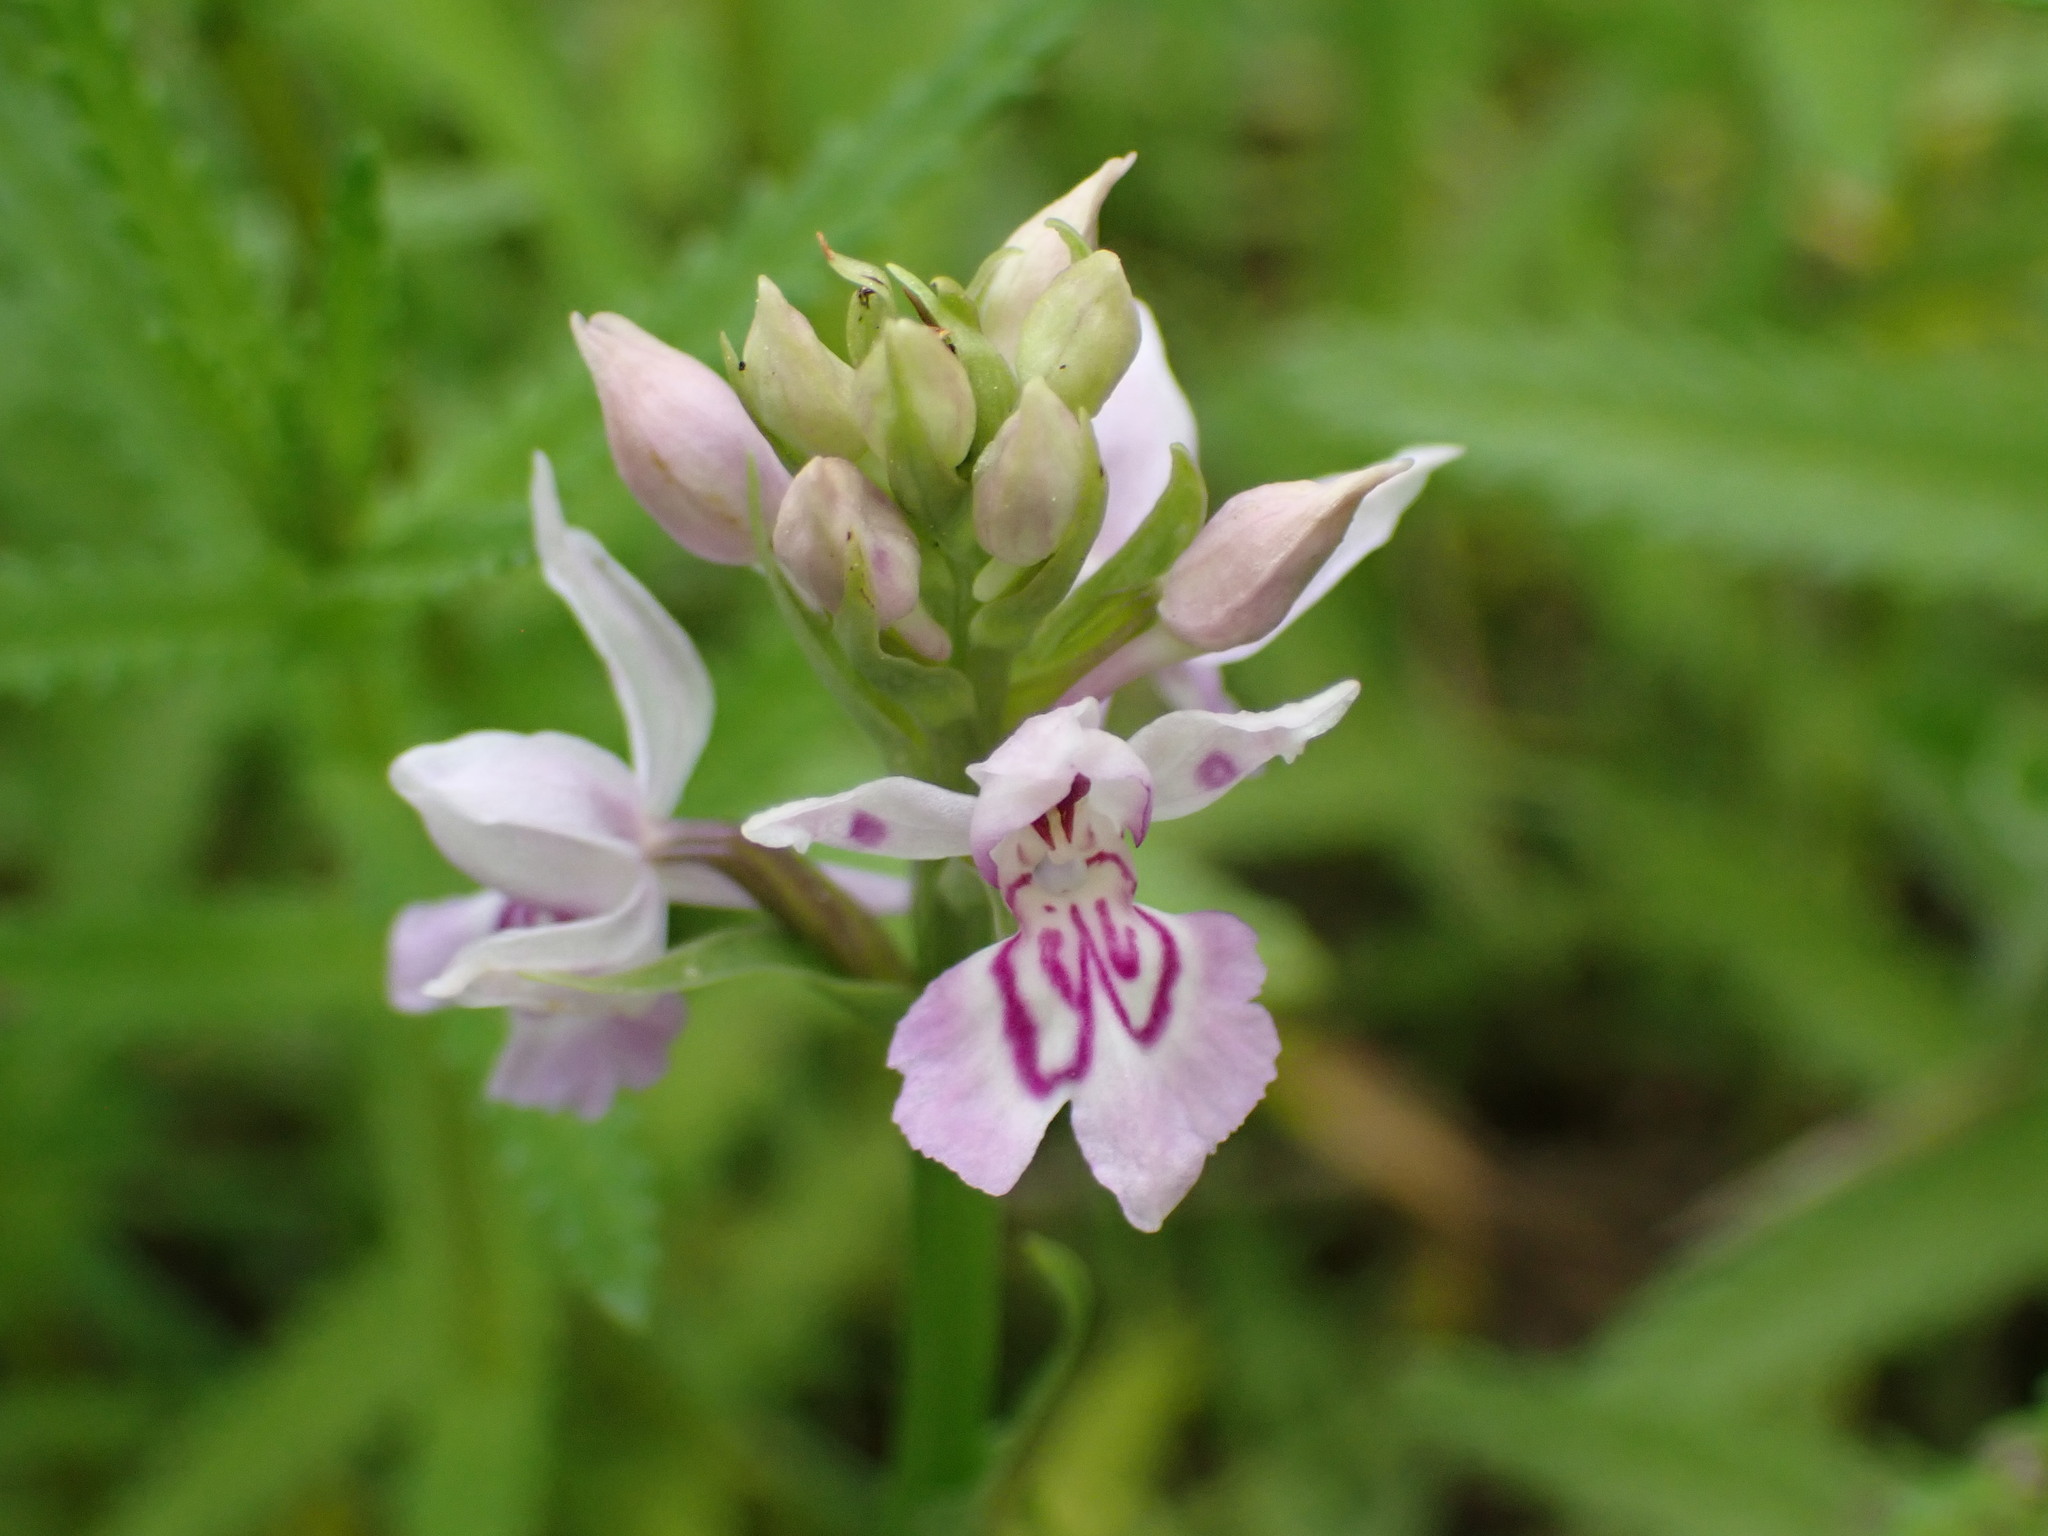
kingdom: Plantae
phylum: Tracheophyta
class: Liliopsida
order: Asparagales
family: Orchidaceae
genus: Dactylorhiza
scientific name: Dactylorhiza maculata
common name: Heath spotted-orchid
